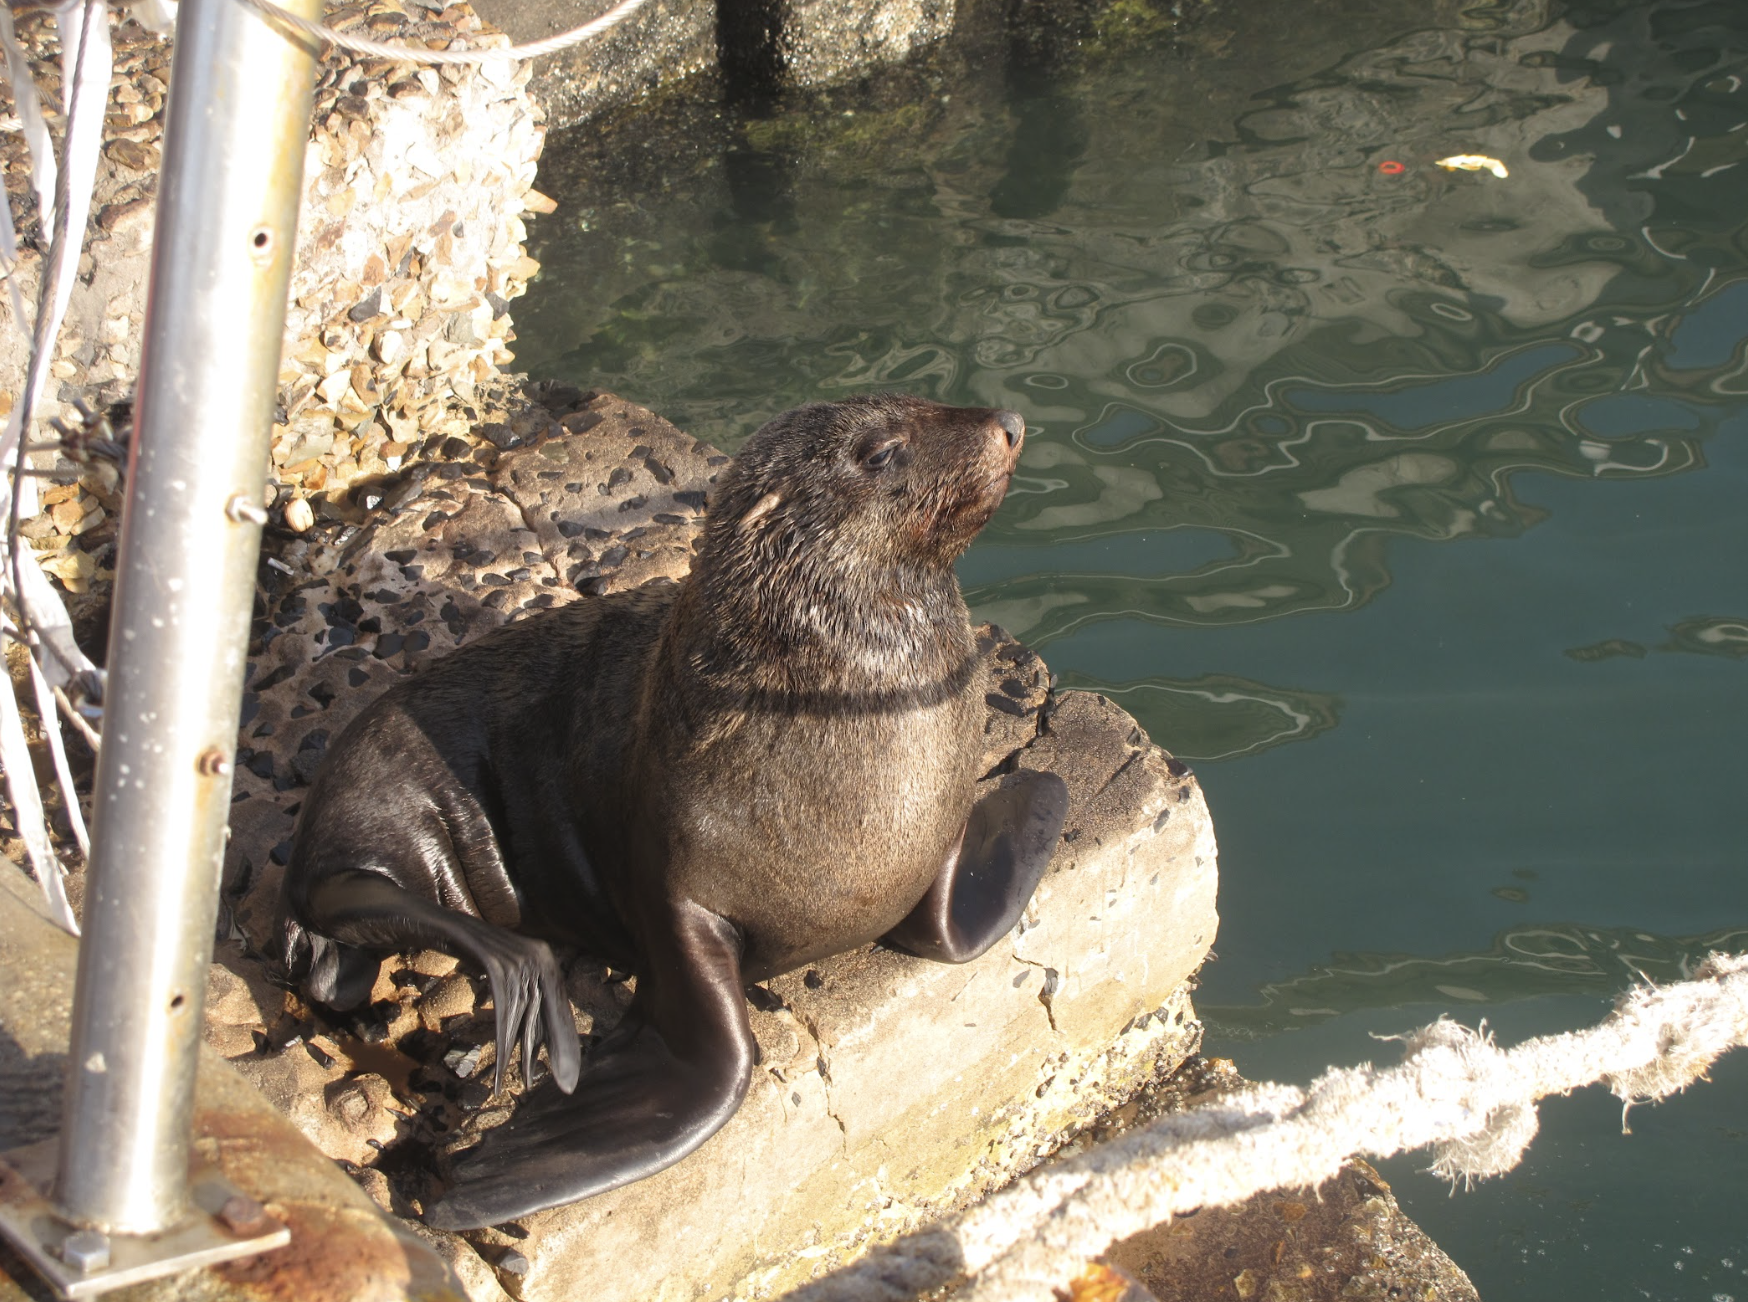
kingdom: Animalia
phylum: Chordata
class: Mammalia
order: Carnivora
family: Otariidae
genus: Arctocephalus
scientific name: Arctocephalus pusillus
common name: Brown fur seal
